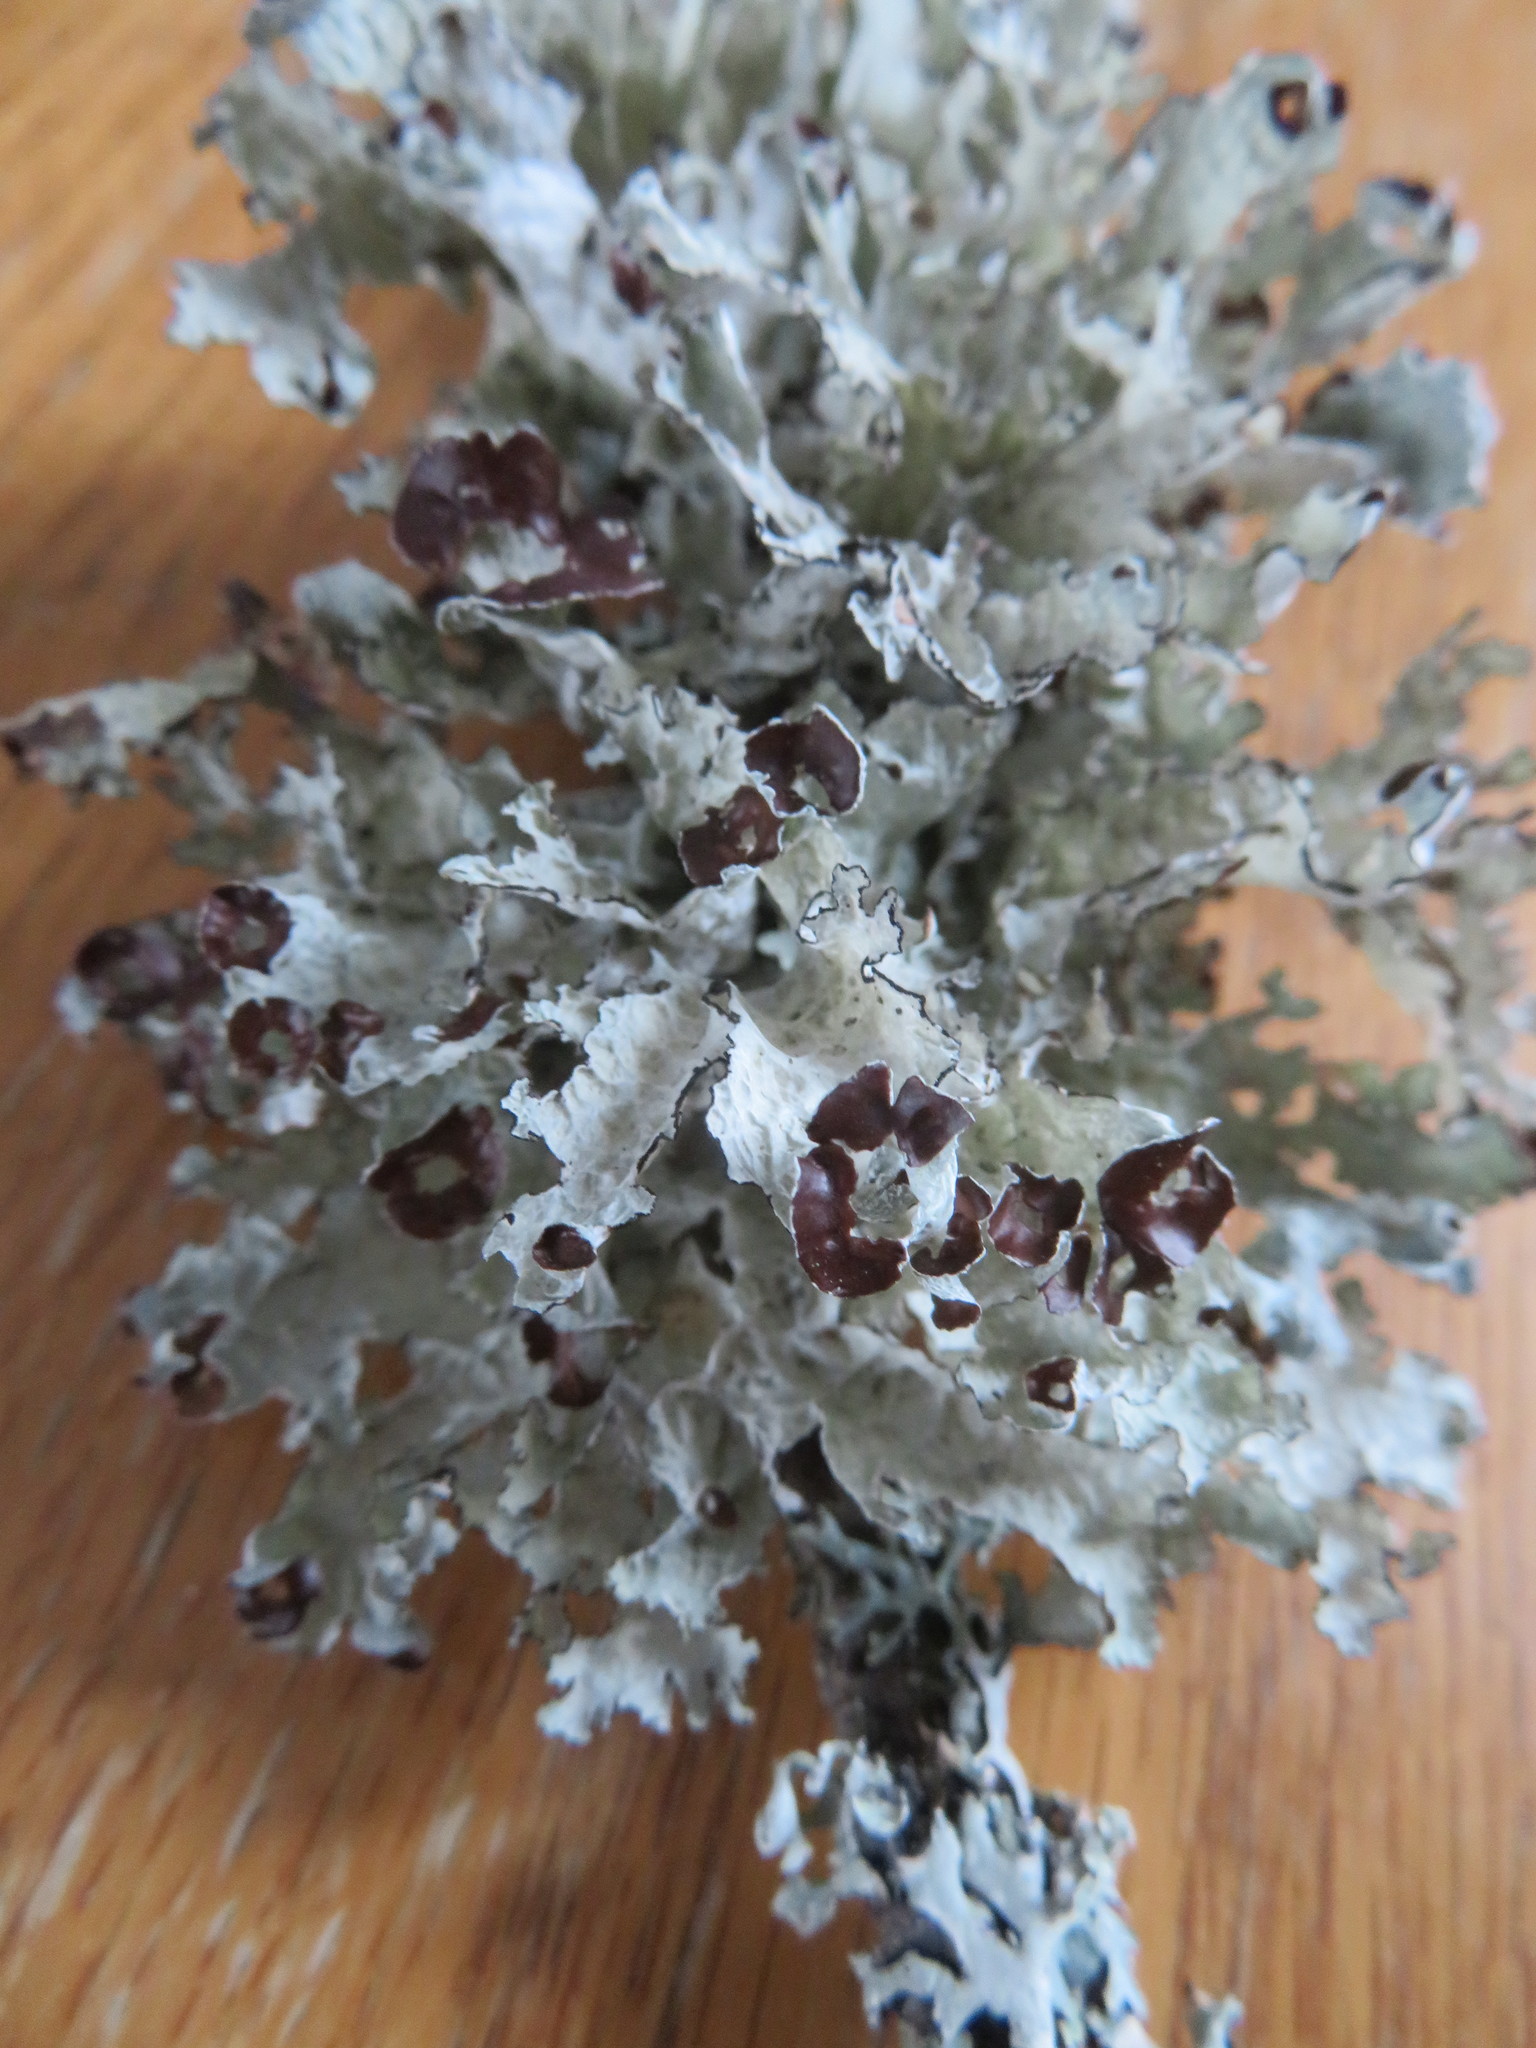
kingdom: Fungi
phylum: Ascomycota
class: Lecanoromycetes
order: Lecanorales
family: Parmeliaceae
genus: Platismatia
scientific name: Platismatia tuckermanii
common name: Crumpled rag lichen
